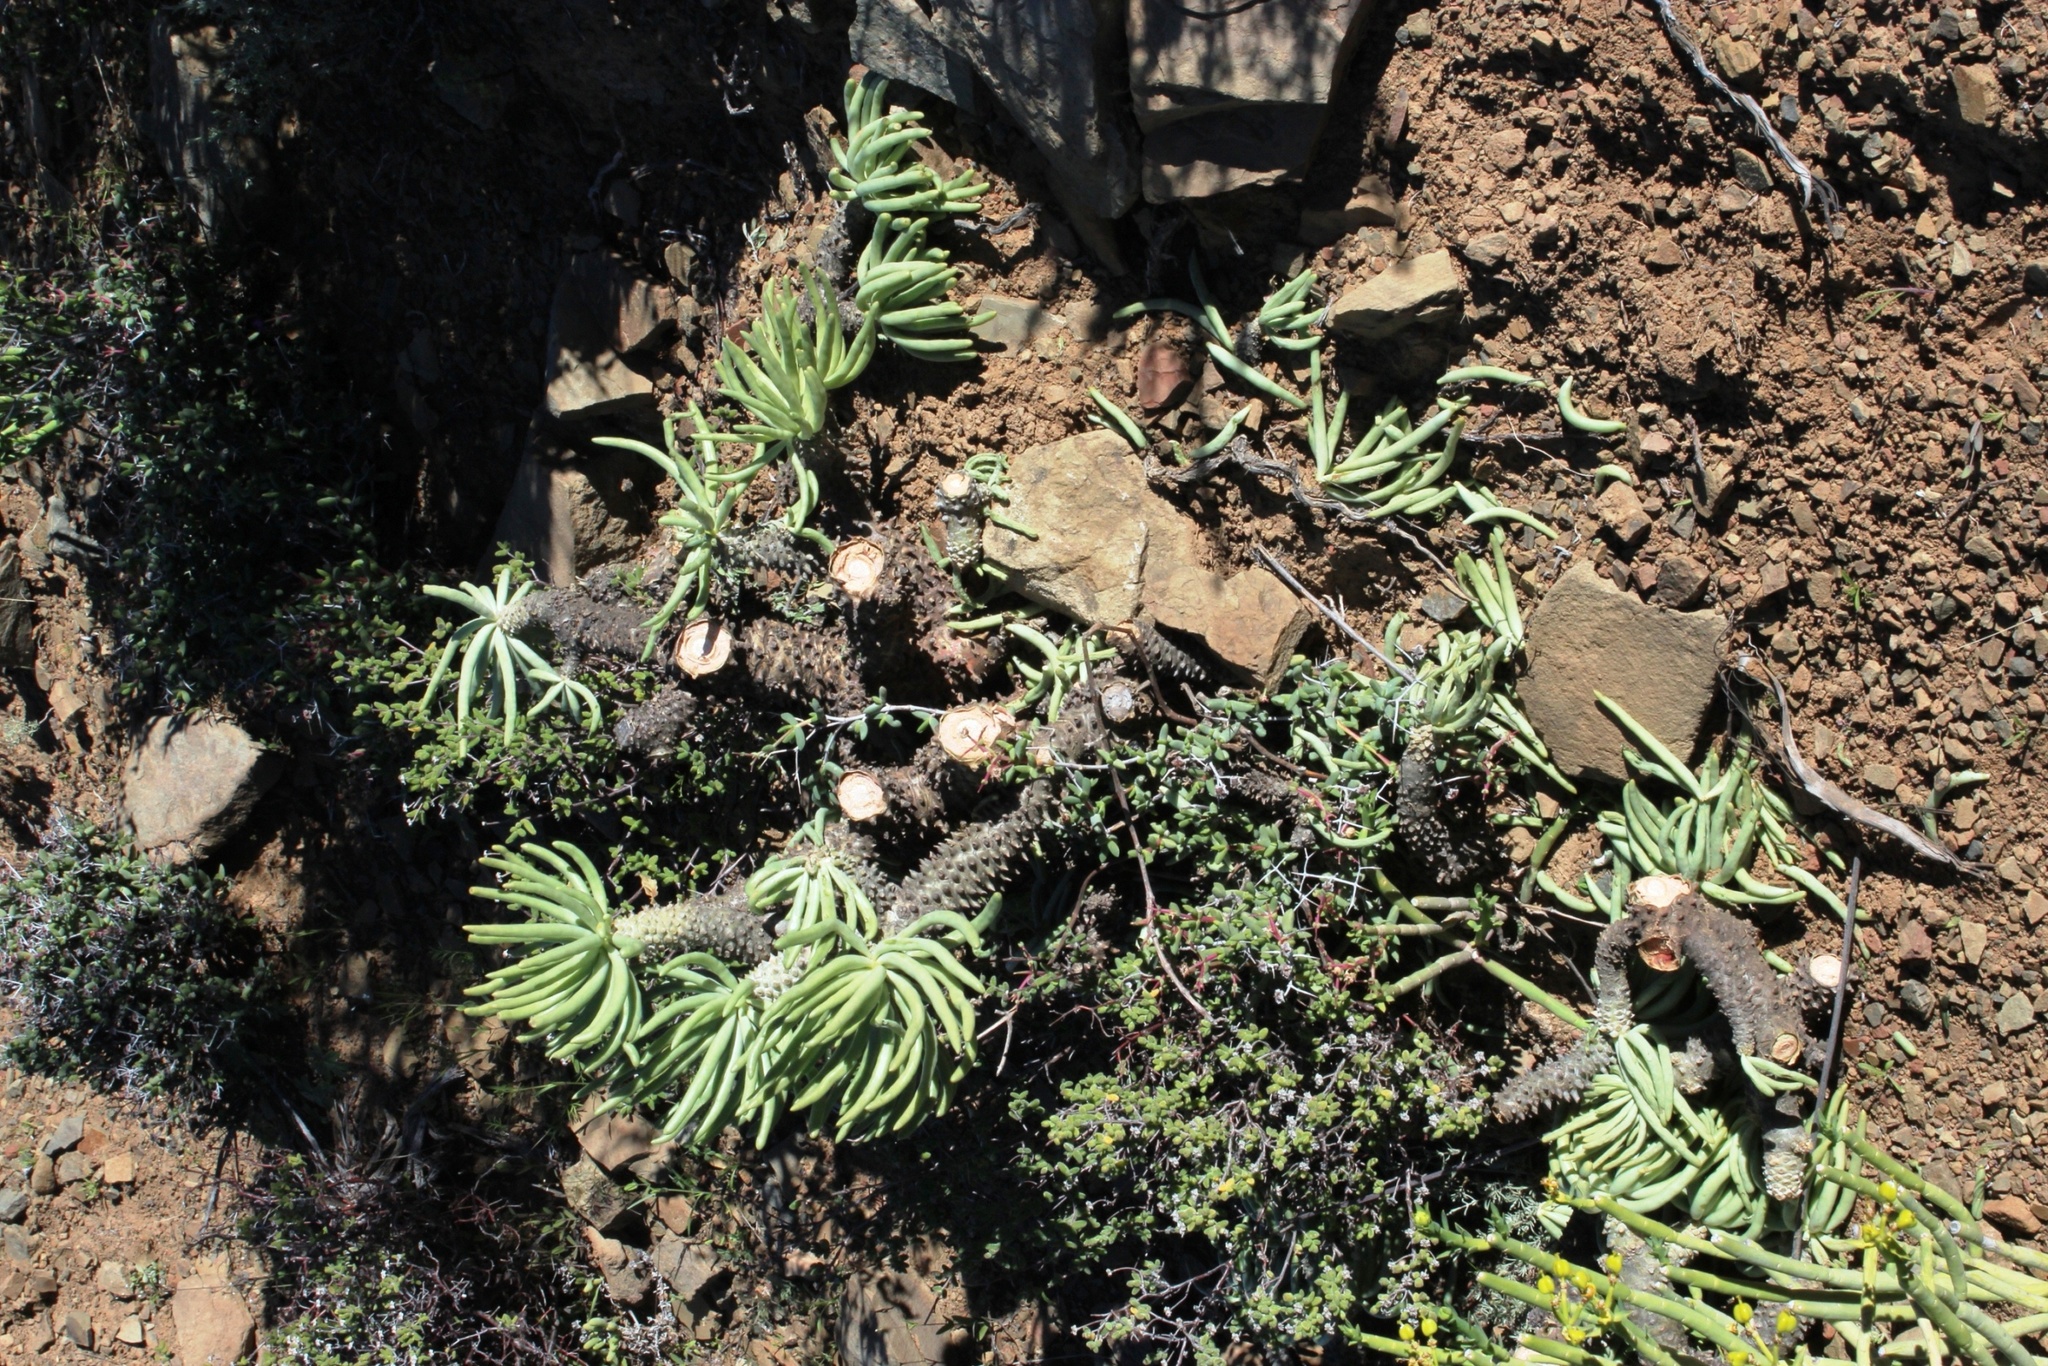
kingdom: Plantae
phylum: Tracheophyta
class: Magnoliopsida
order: Saxifragales
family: Crassulaceae
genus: Tylecodon
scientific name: Tylecodon wallichii
